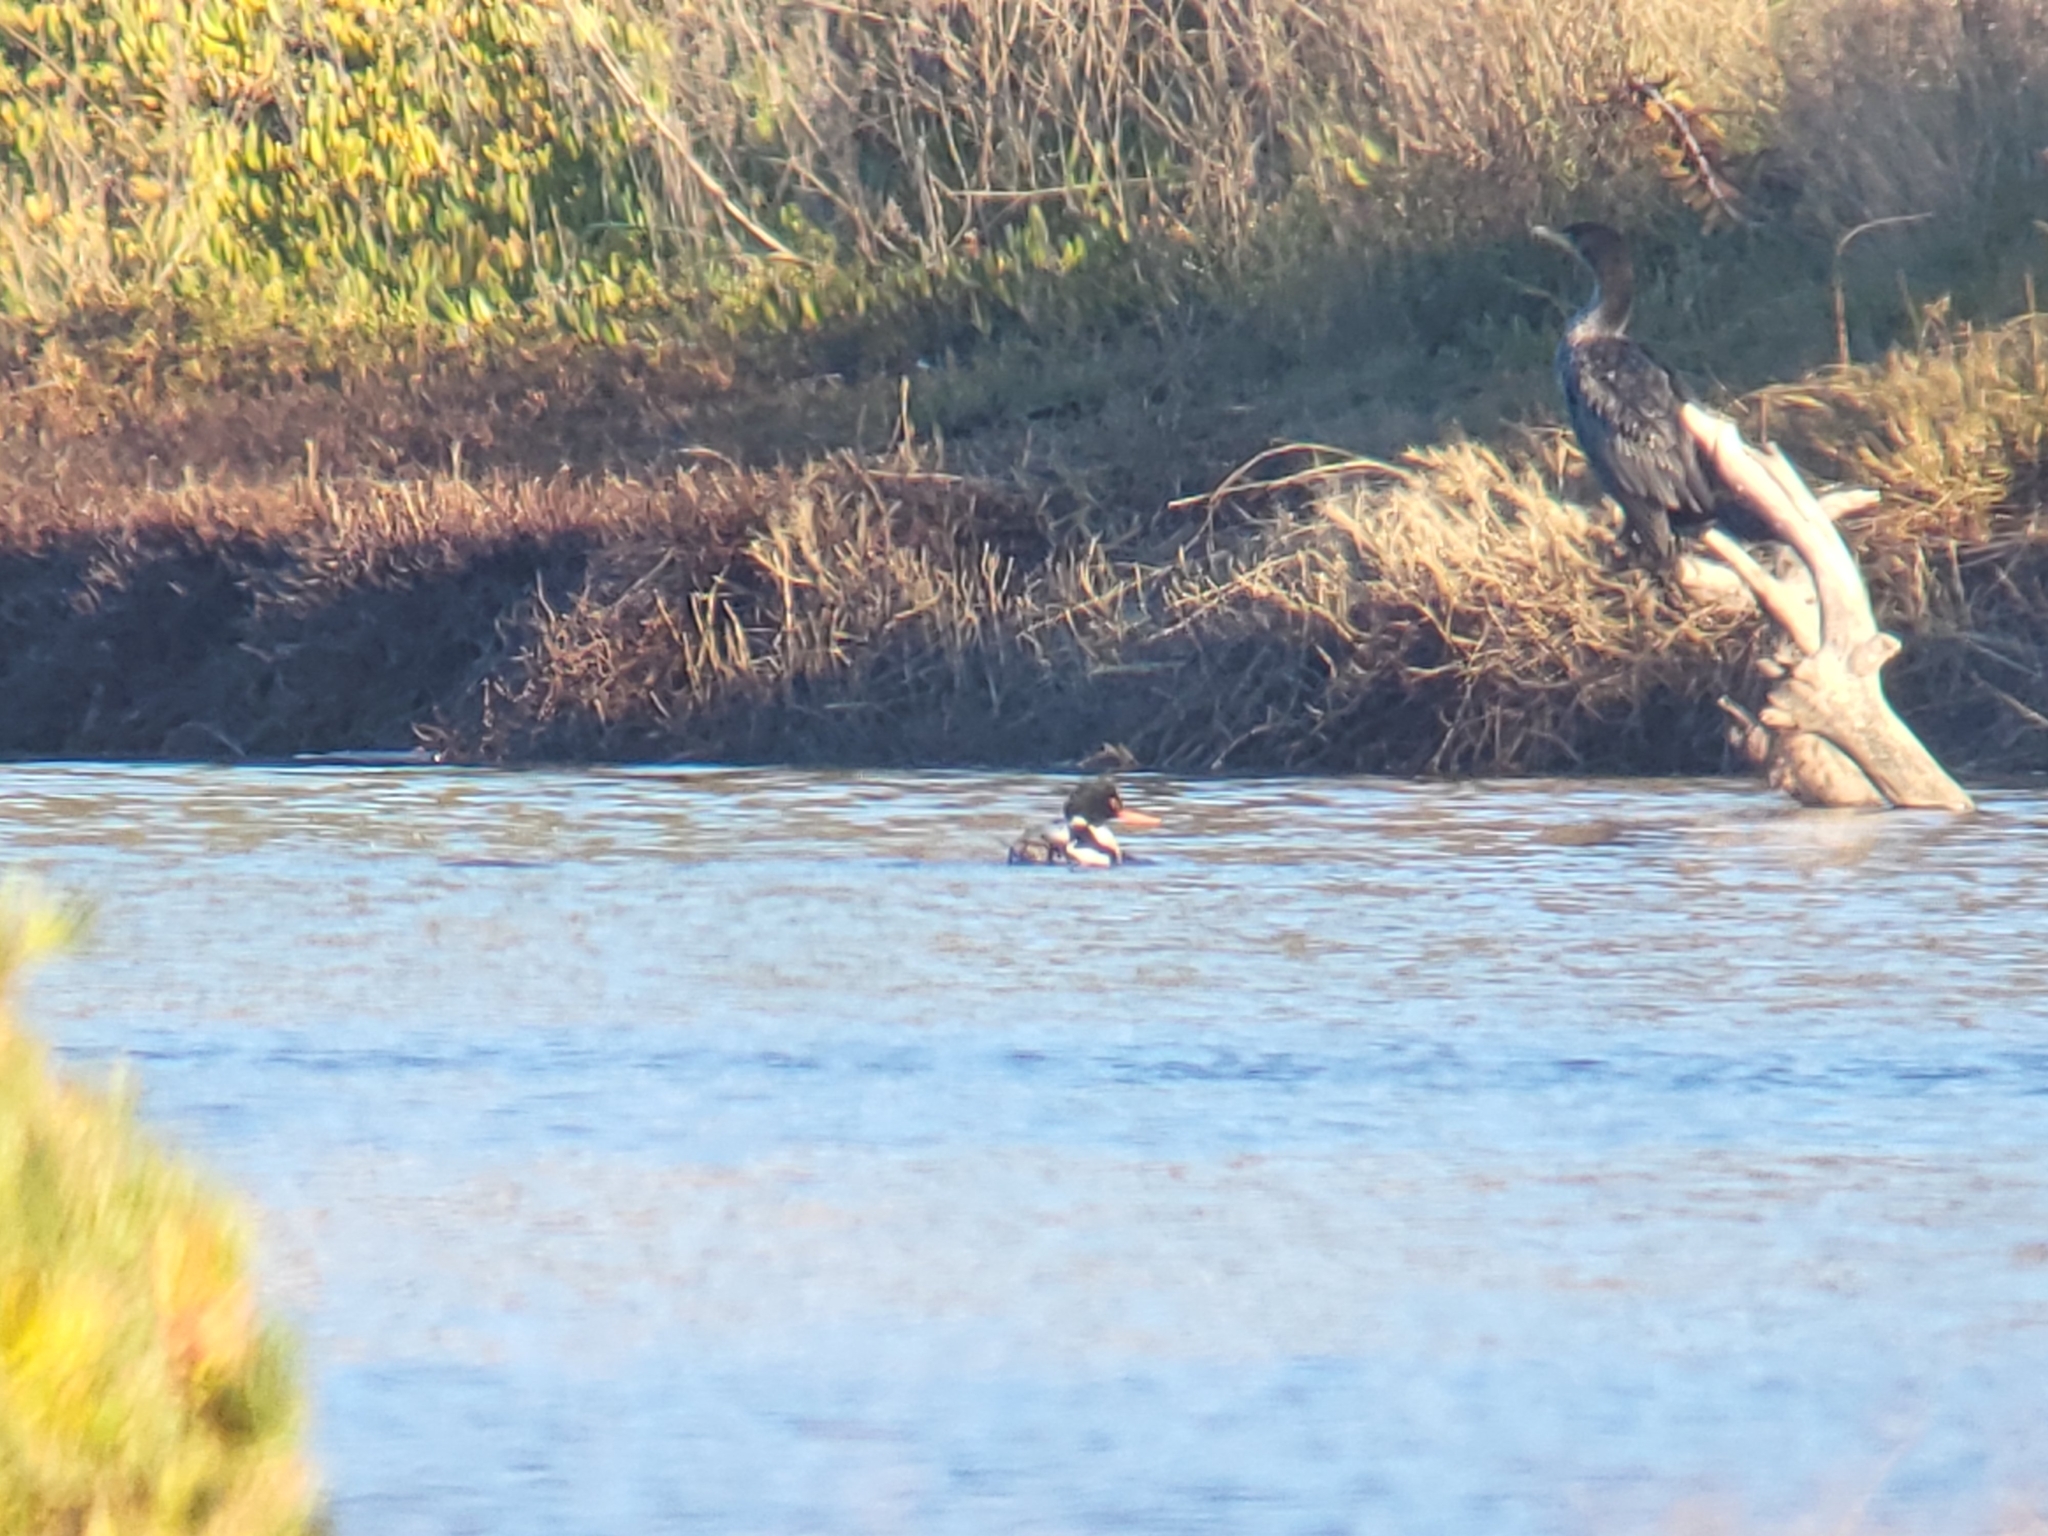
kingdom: Animalia
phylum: Chordata
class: Aves
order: Anseriformes
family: Anatidae
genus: Mergus
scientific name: Mergus serrator
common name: Red-breasted merganser
